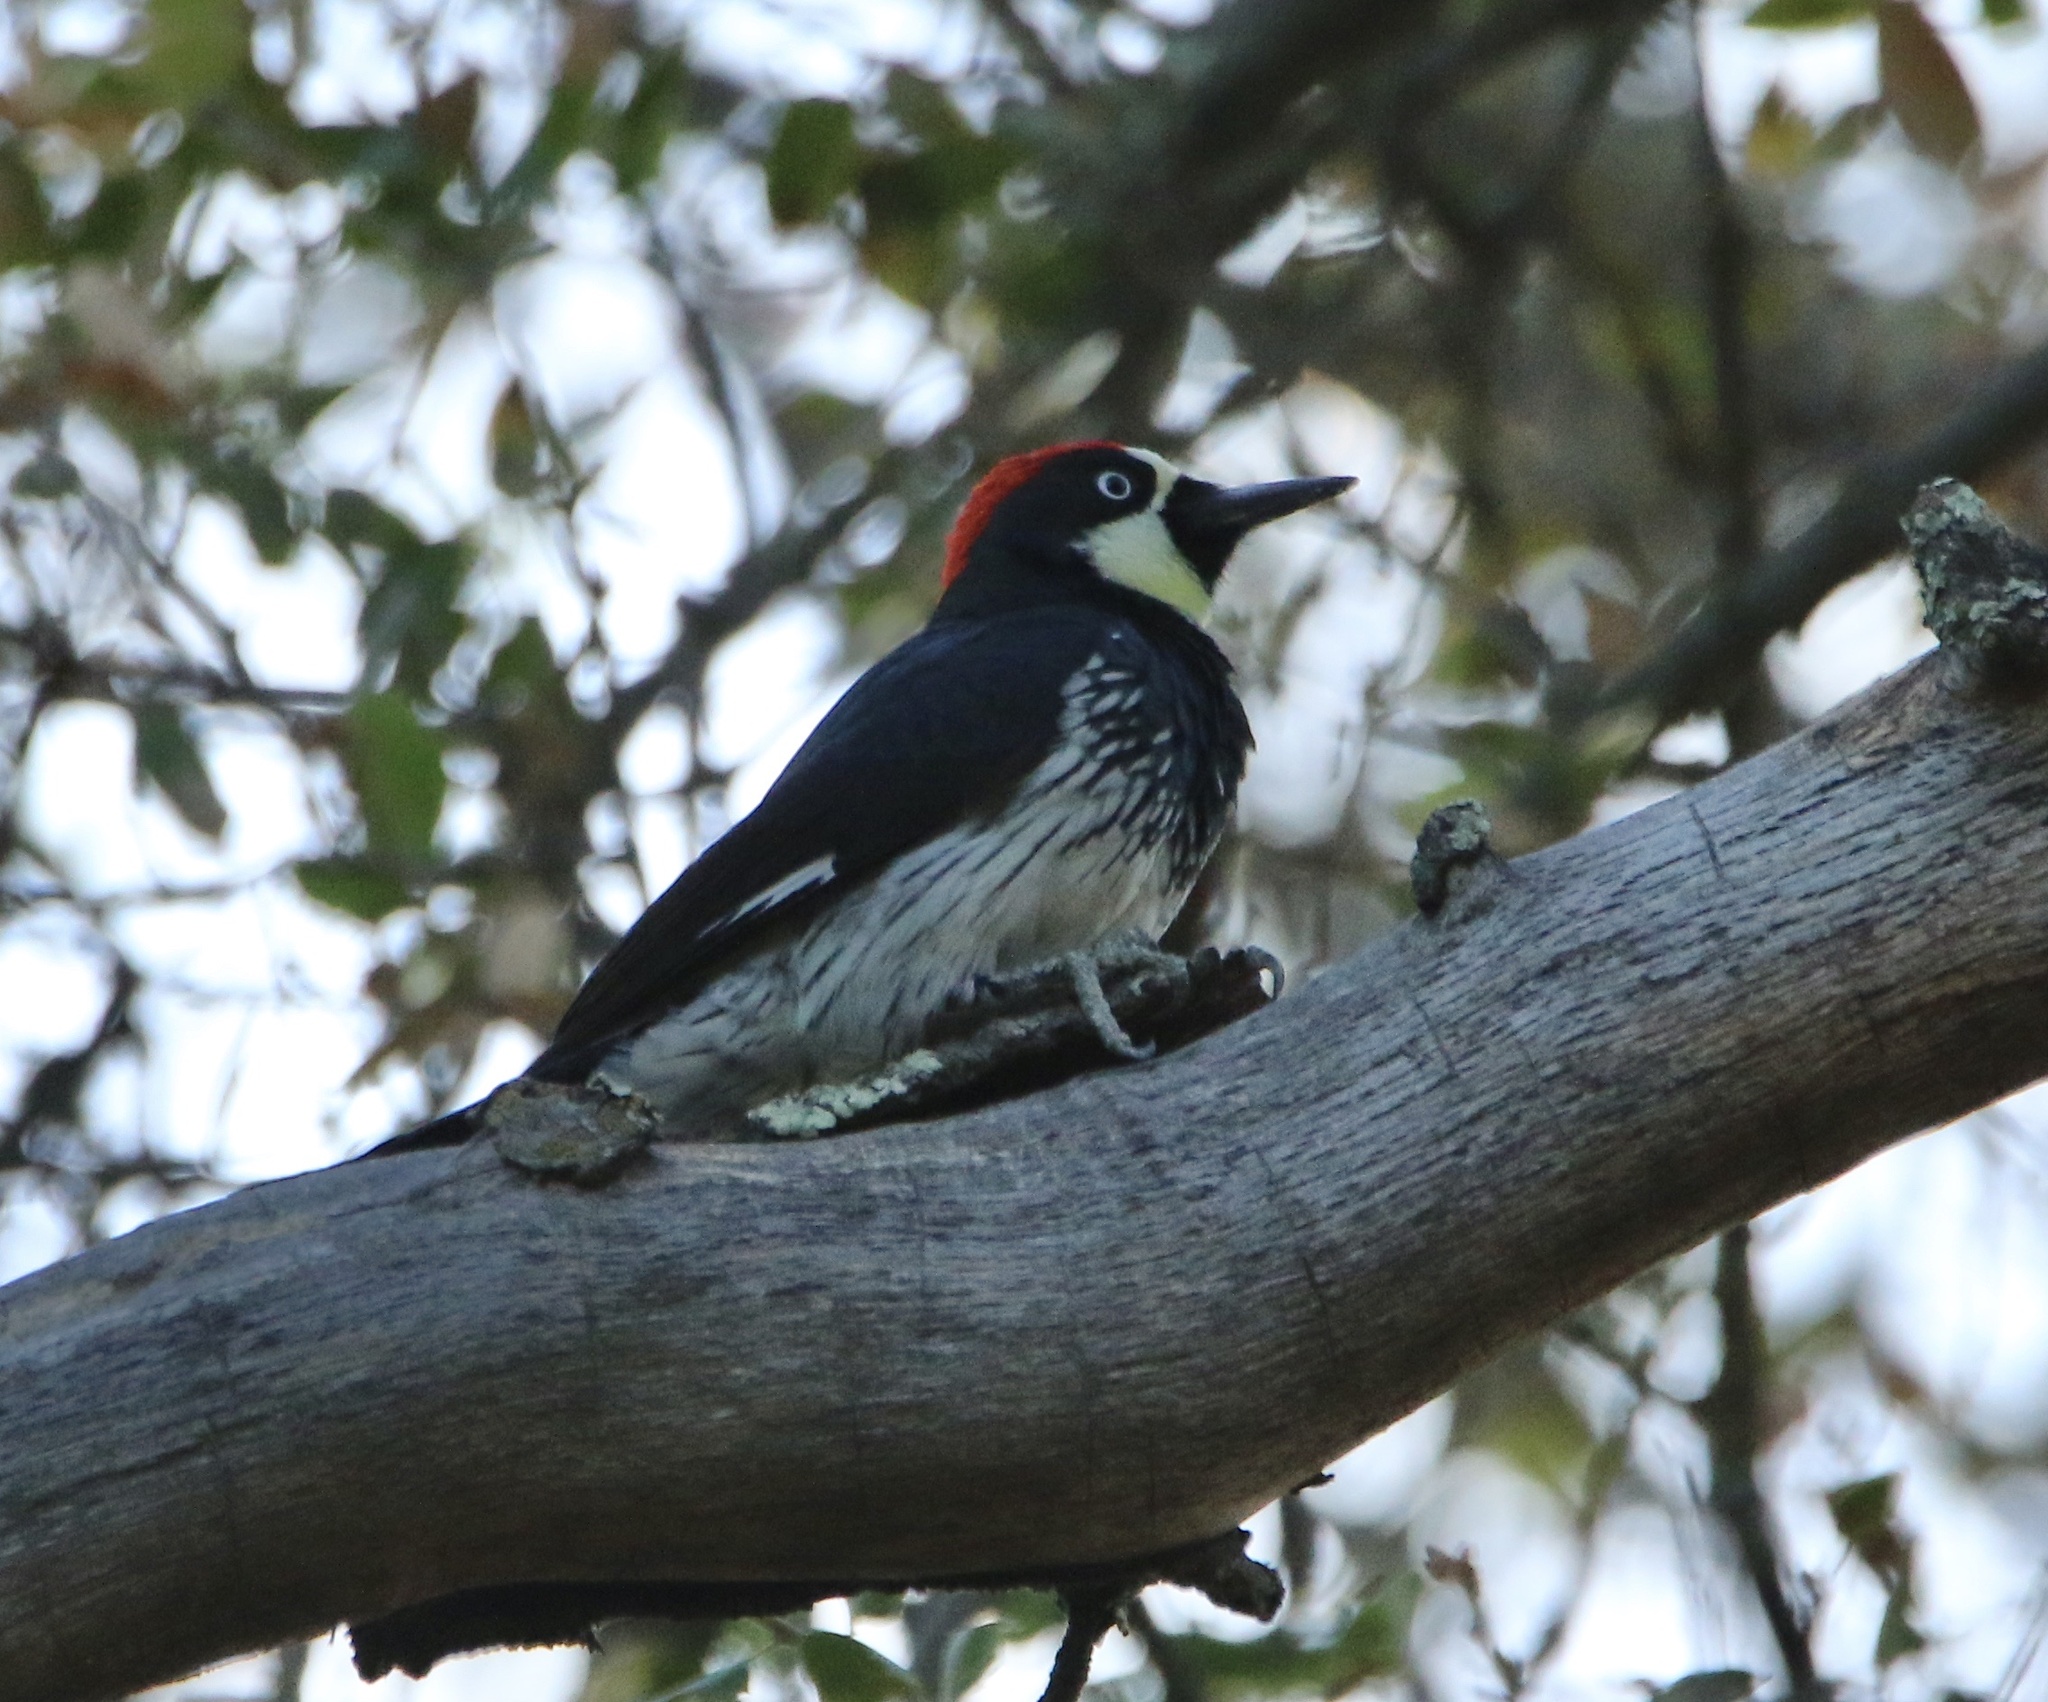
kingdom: Animalia
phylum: Chordata
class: Aves
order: Piciformes
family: Picidae
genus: Melanerpes
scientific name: Melanerpes formicivorus
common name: Acorn woodpecker
